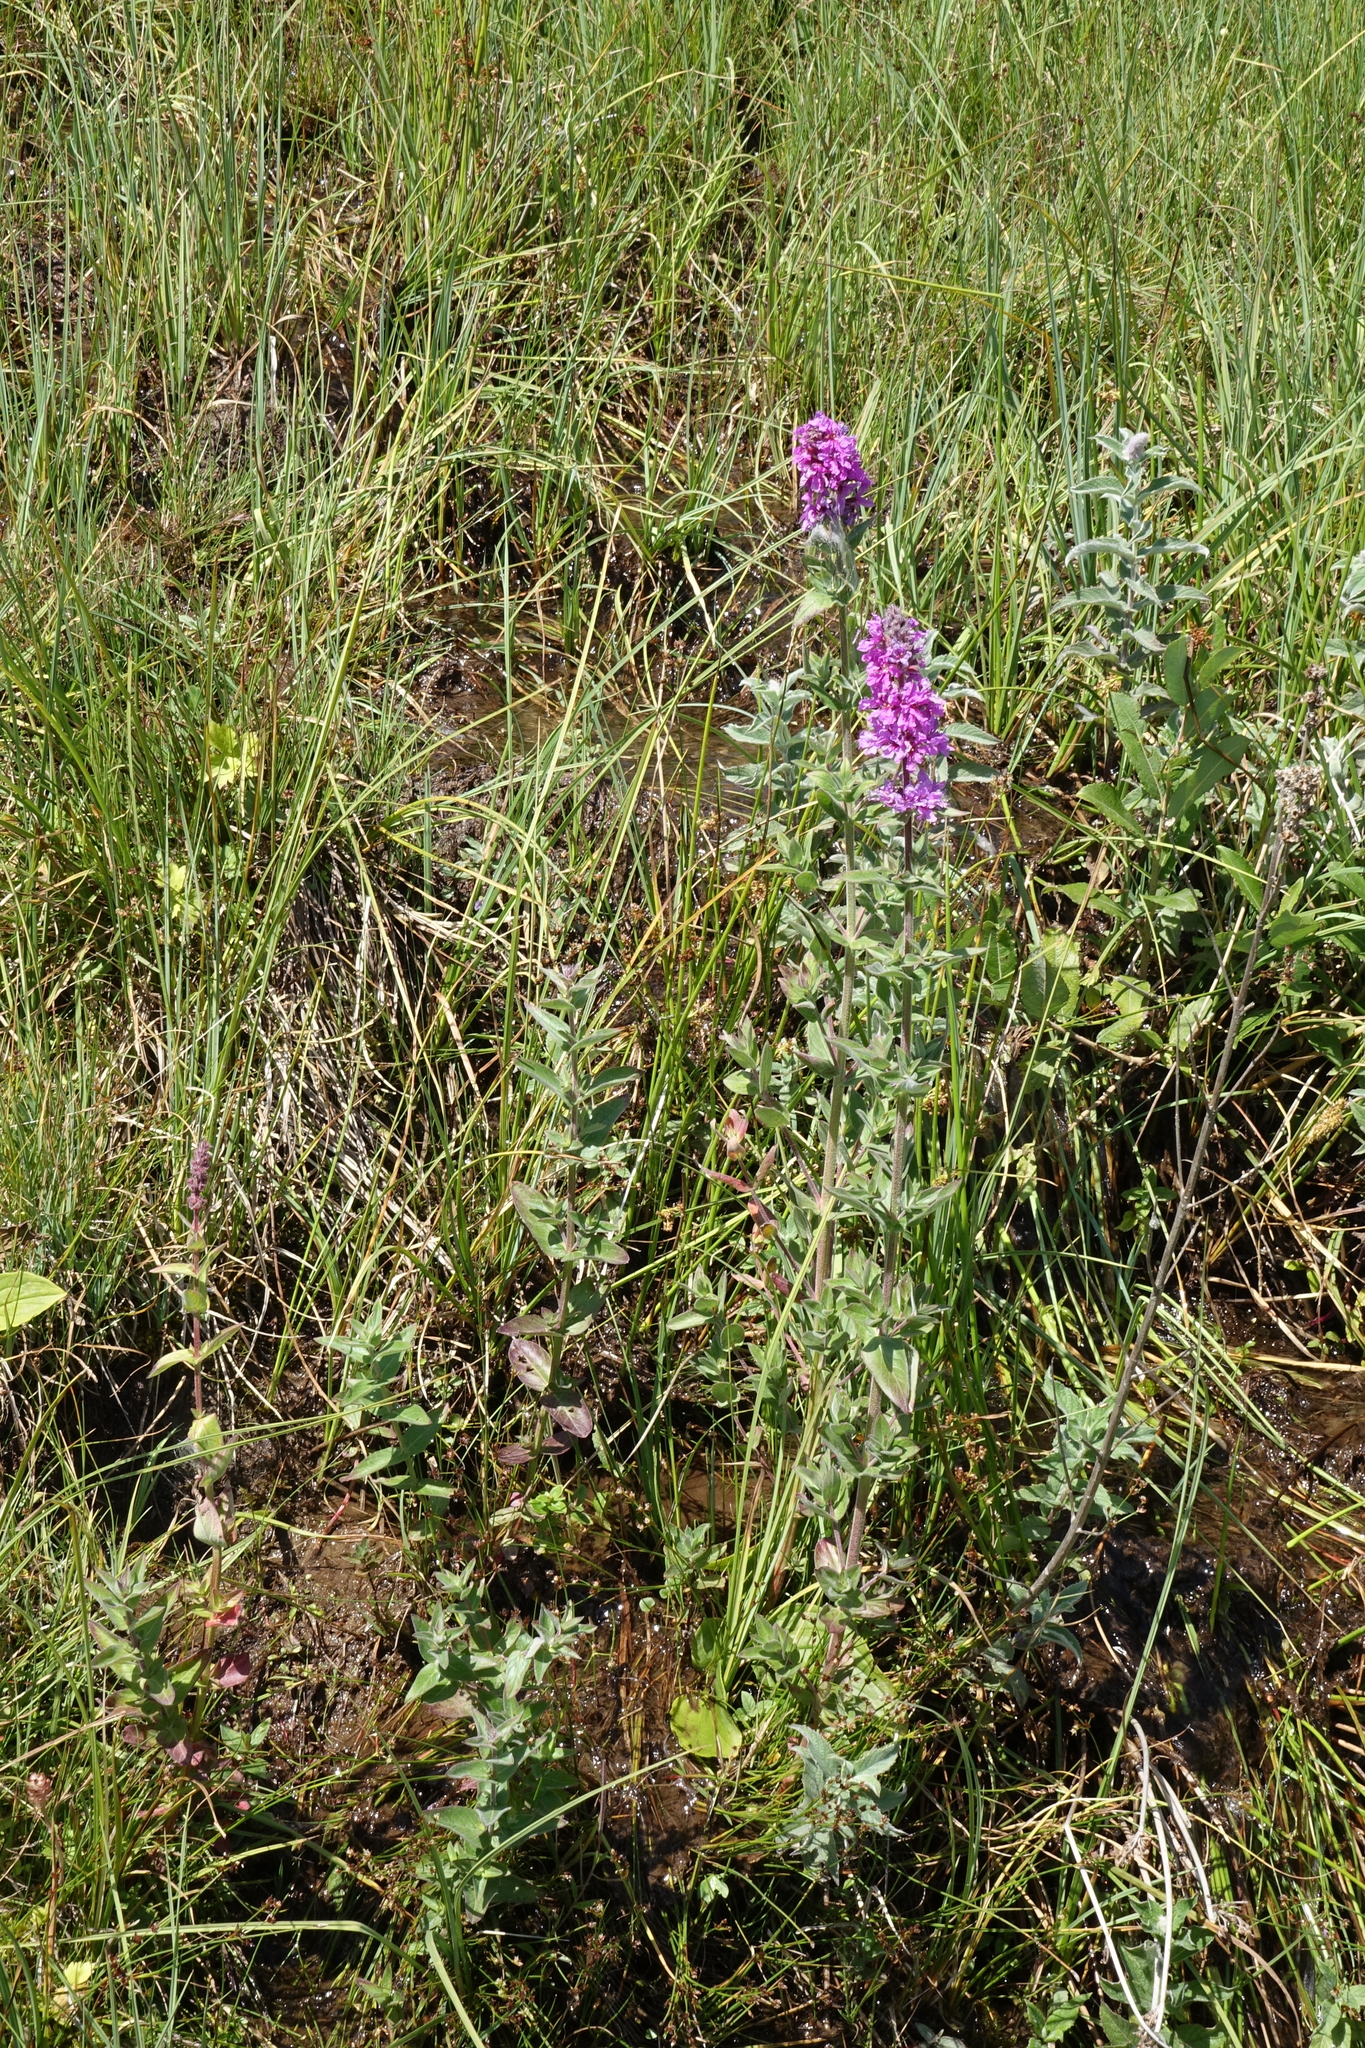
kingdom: Plantae
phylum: Tracheophyta
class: Magnoliopsida
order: Myrtales
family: Lythraceae
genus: Lythrum
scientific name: Lythrum salicaria
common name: Purple loosestrife
